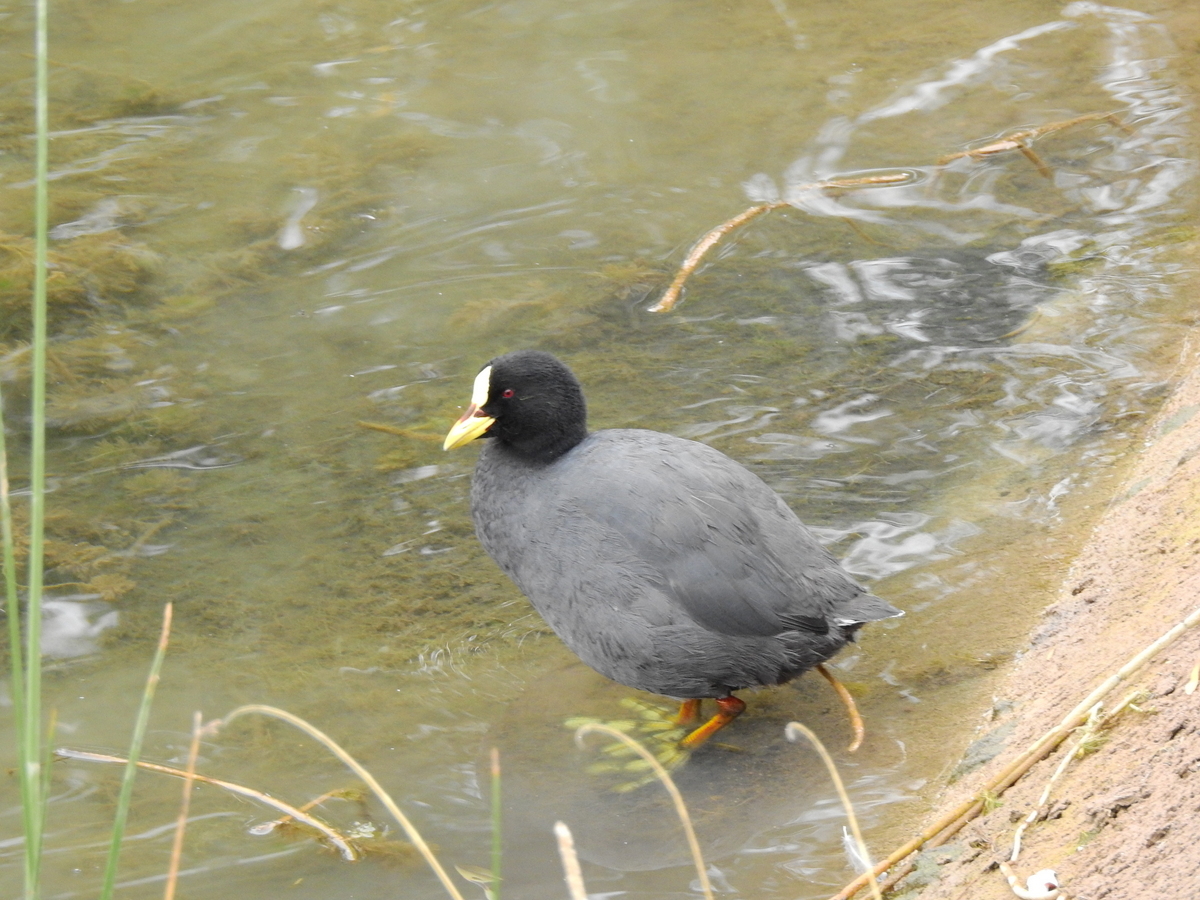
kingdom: Animalia
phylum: Chordata
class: Aves
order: Gruiformes
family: Rallidae
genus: Fulica
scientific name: Fulica armillata
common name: Red-gartered coot
